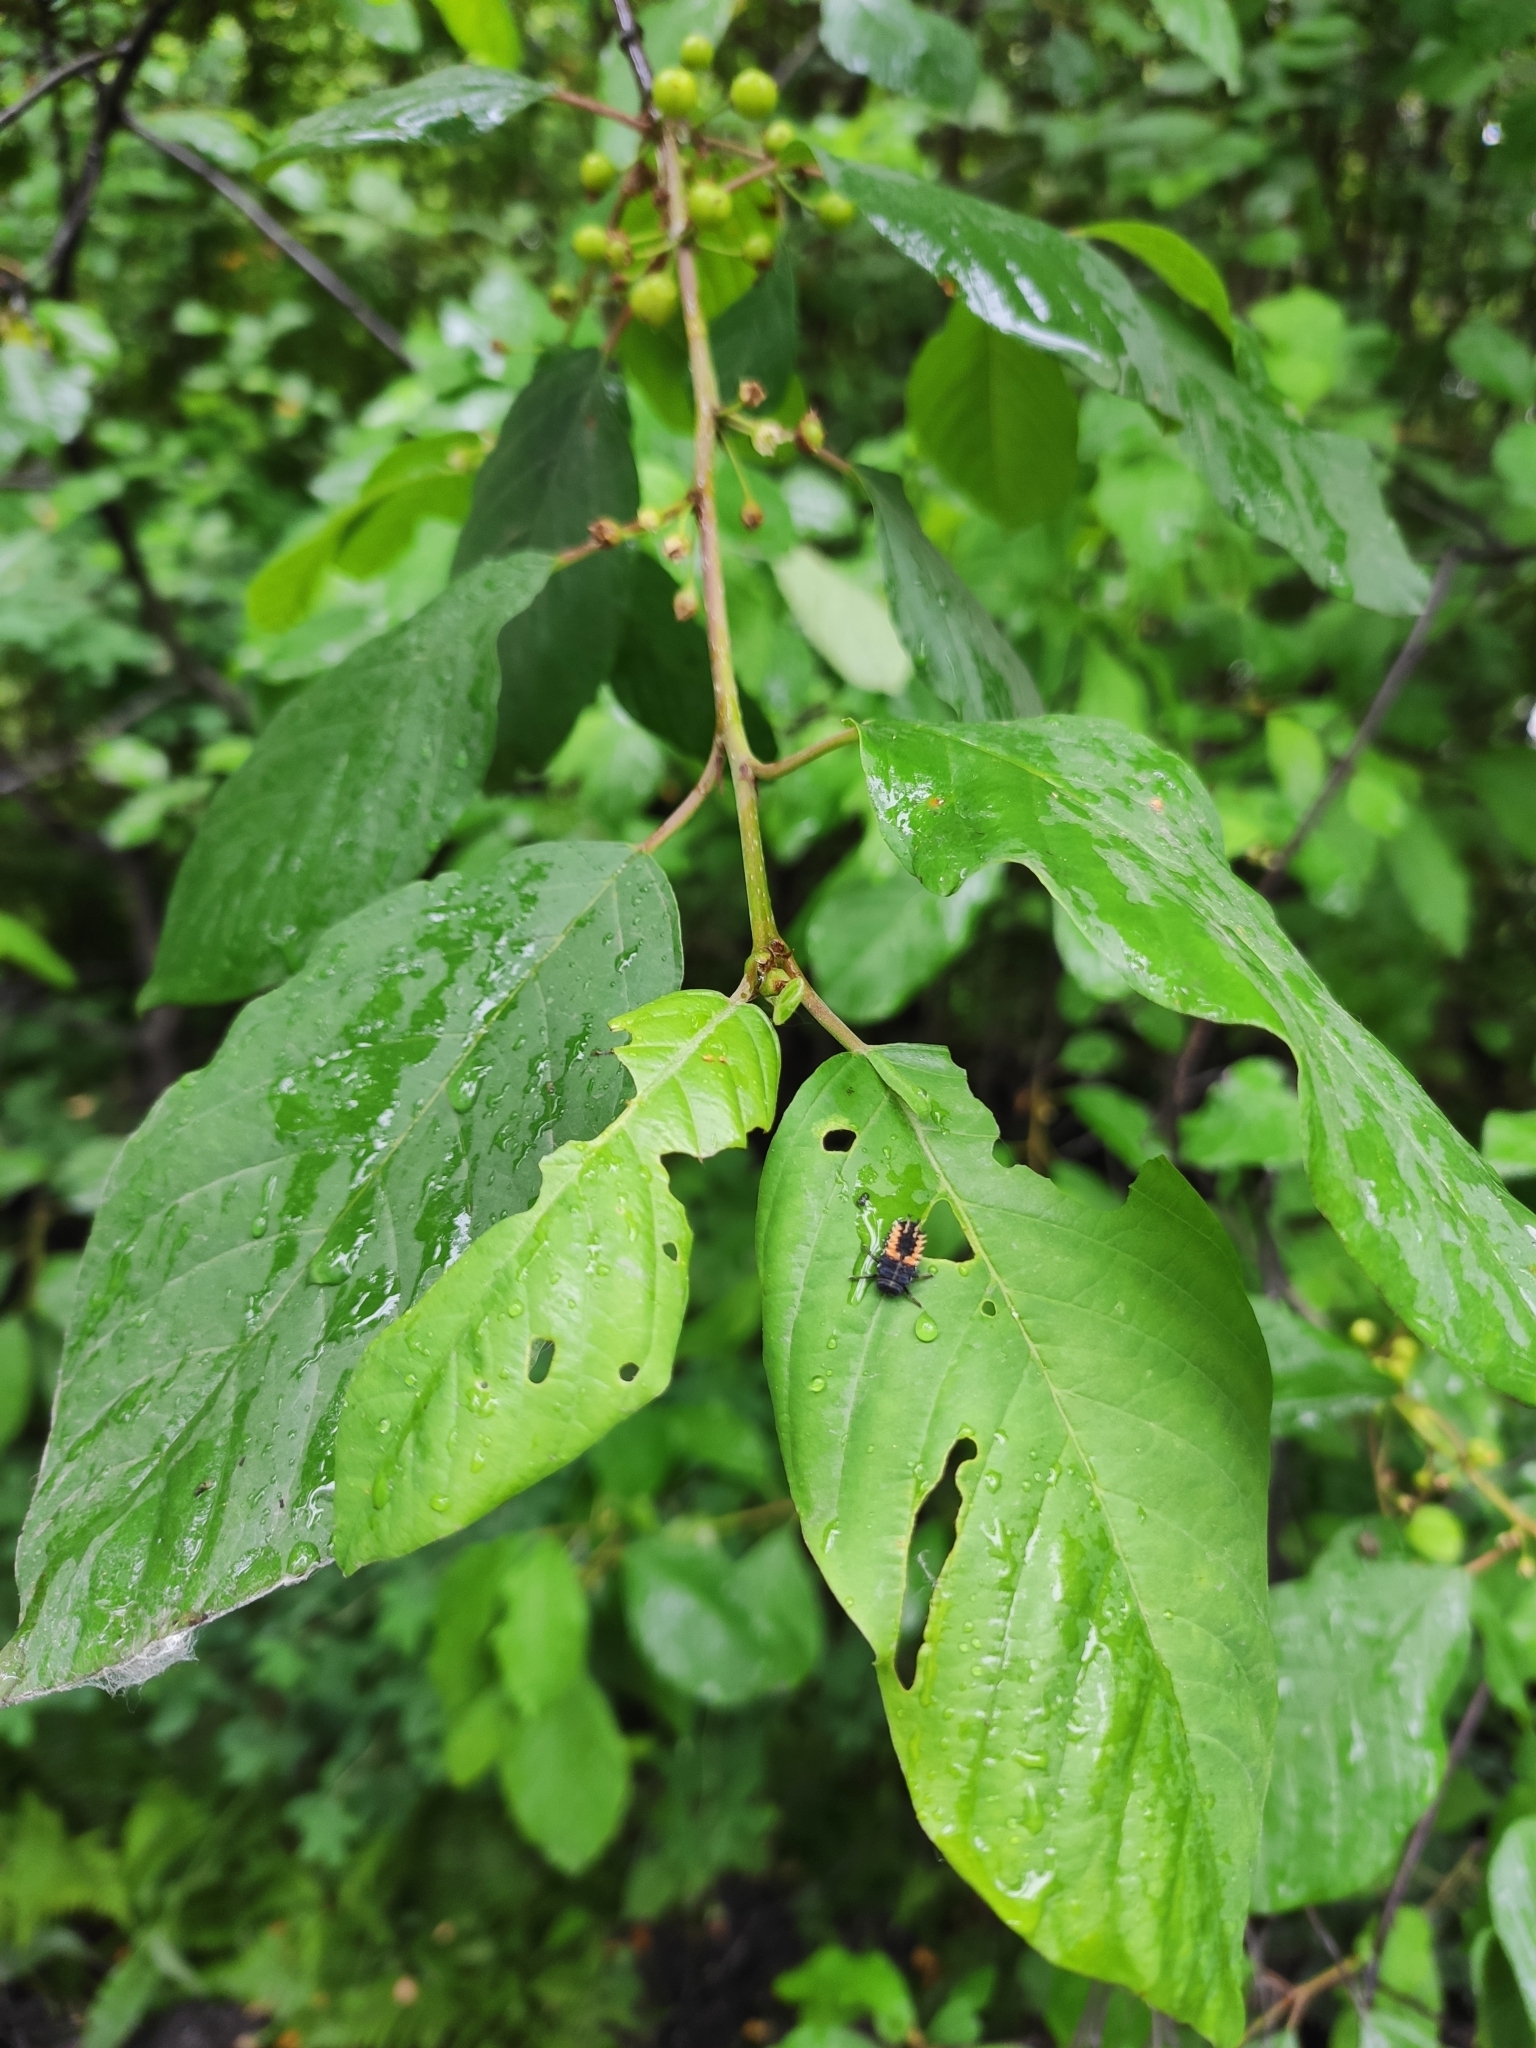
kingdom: Plantae
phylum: Tracheophyta
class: Magnoliopsida
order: Rosales
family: Rhamnaceae
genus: Frangula
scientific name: Frangula alnus
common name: Alder buckthorn
